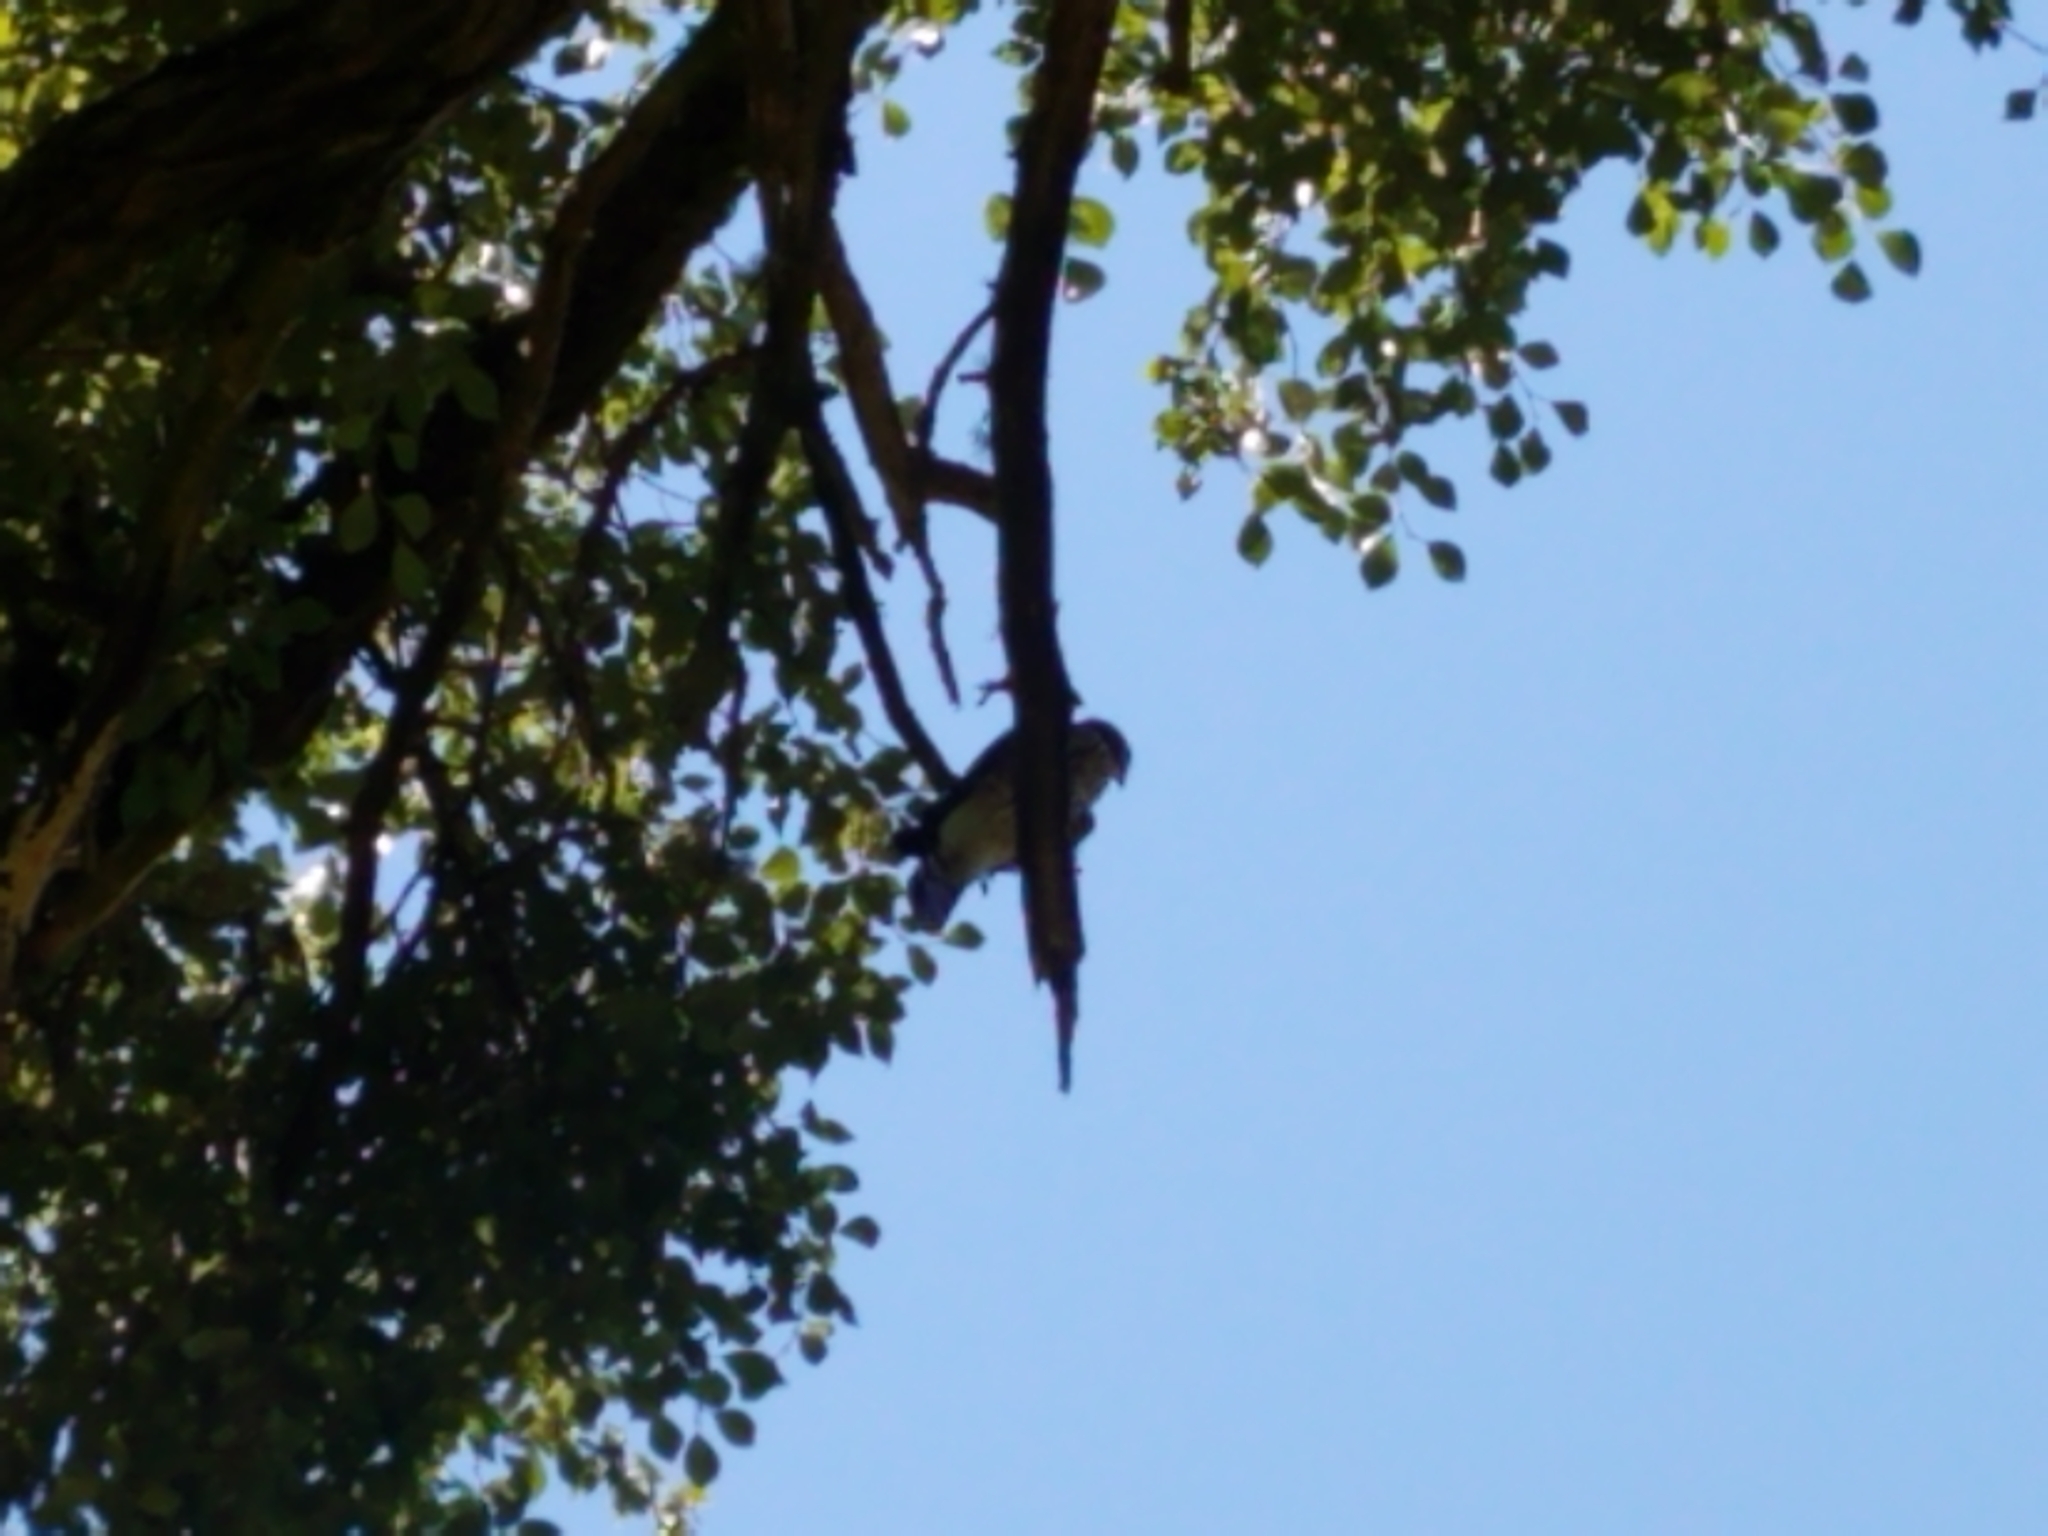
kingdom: Animalia
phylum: Chordata
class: Aves
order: Accipitriformes
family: Accipitridae
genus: Accipiter
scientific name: Accipiter cooperii
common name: Cooper's hawk
